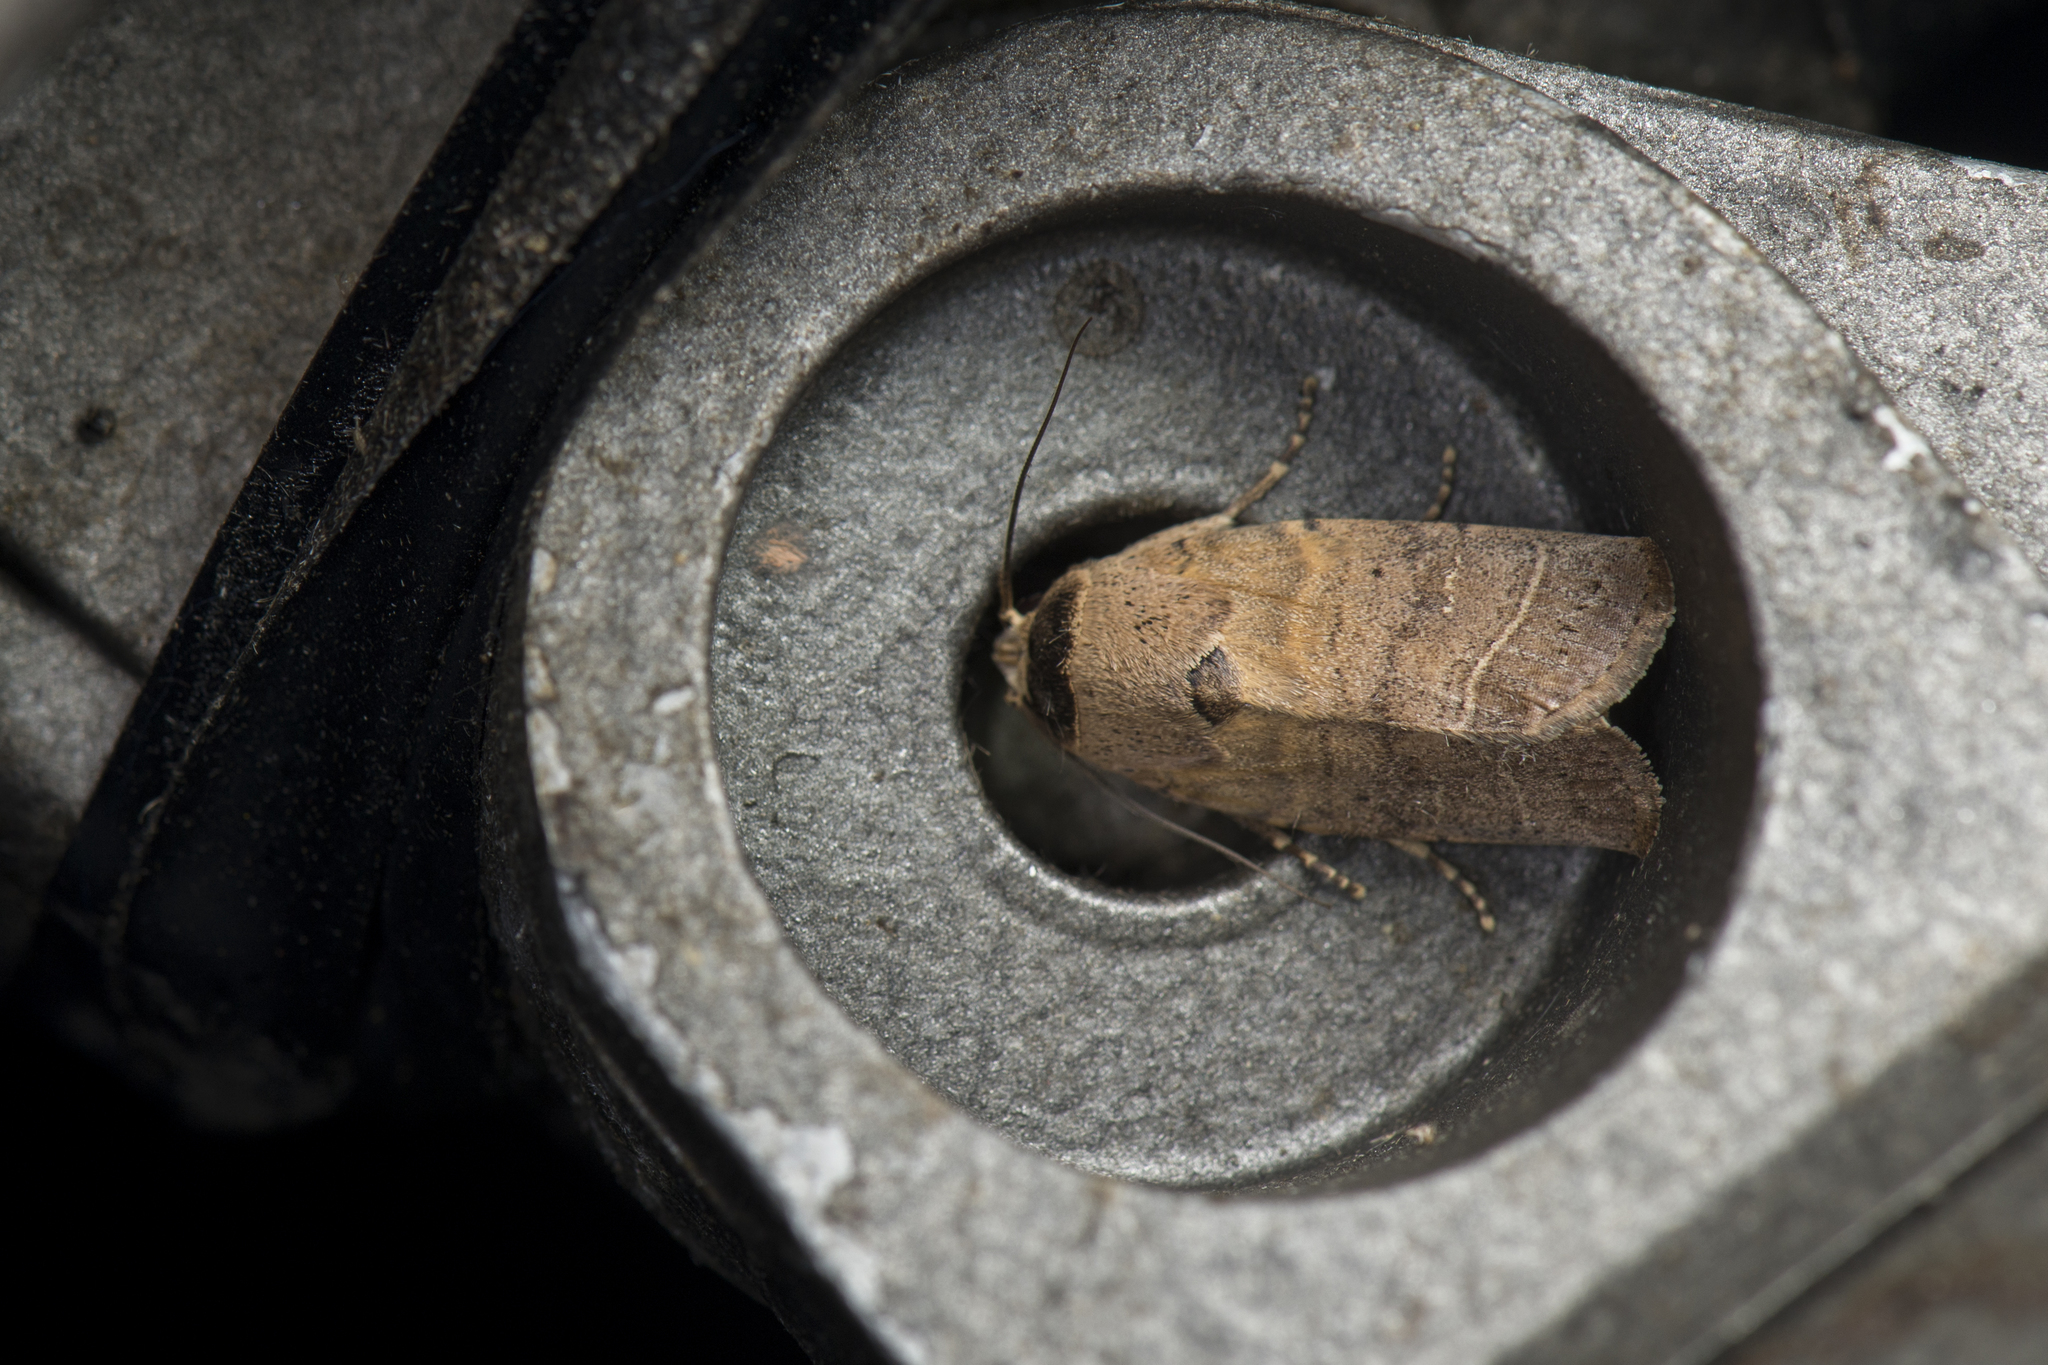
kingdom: Animalia
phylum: Arthropoda
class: Insecta
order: Lepidoptera
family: Noctuidae
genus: Athetis
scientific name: Athetis thoracica
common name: Cutworm
